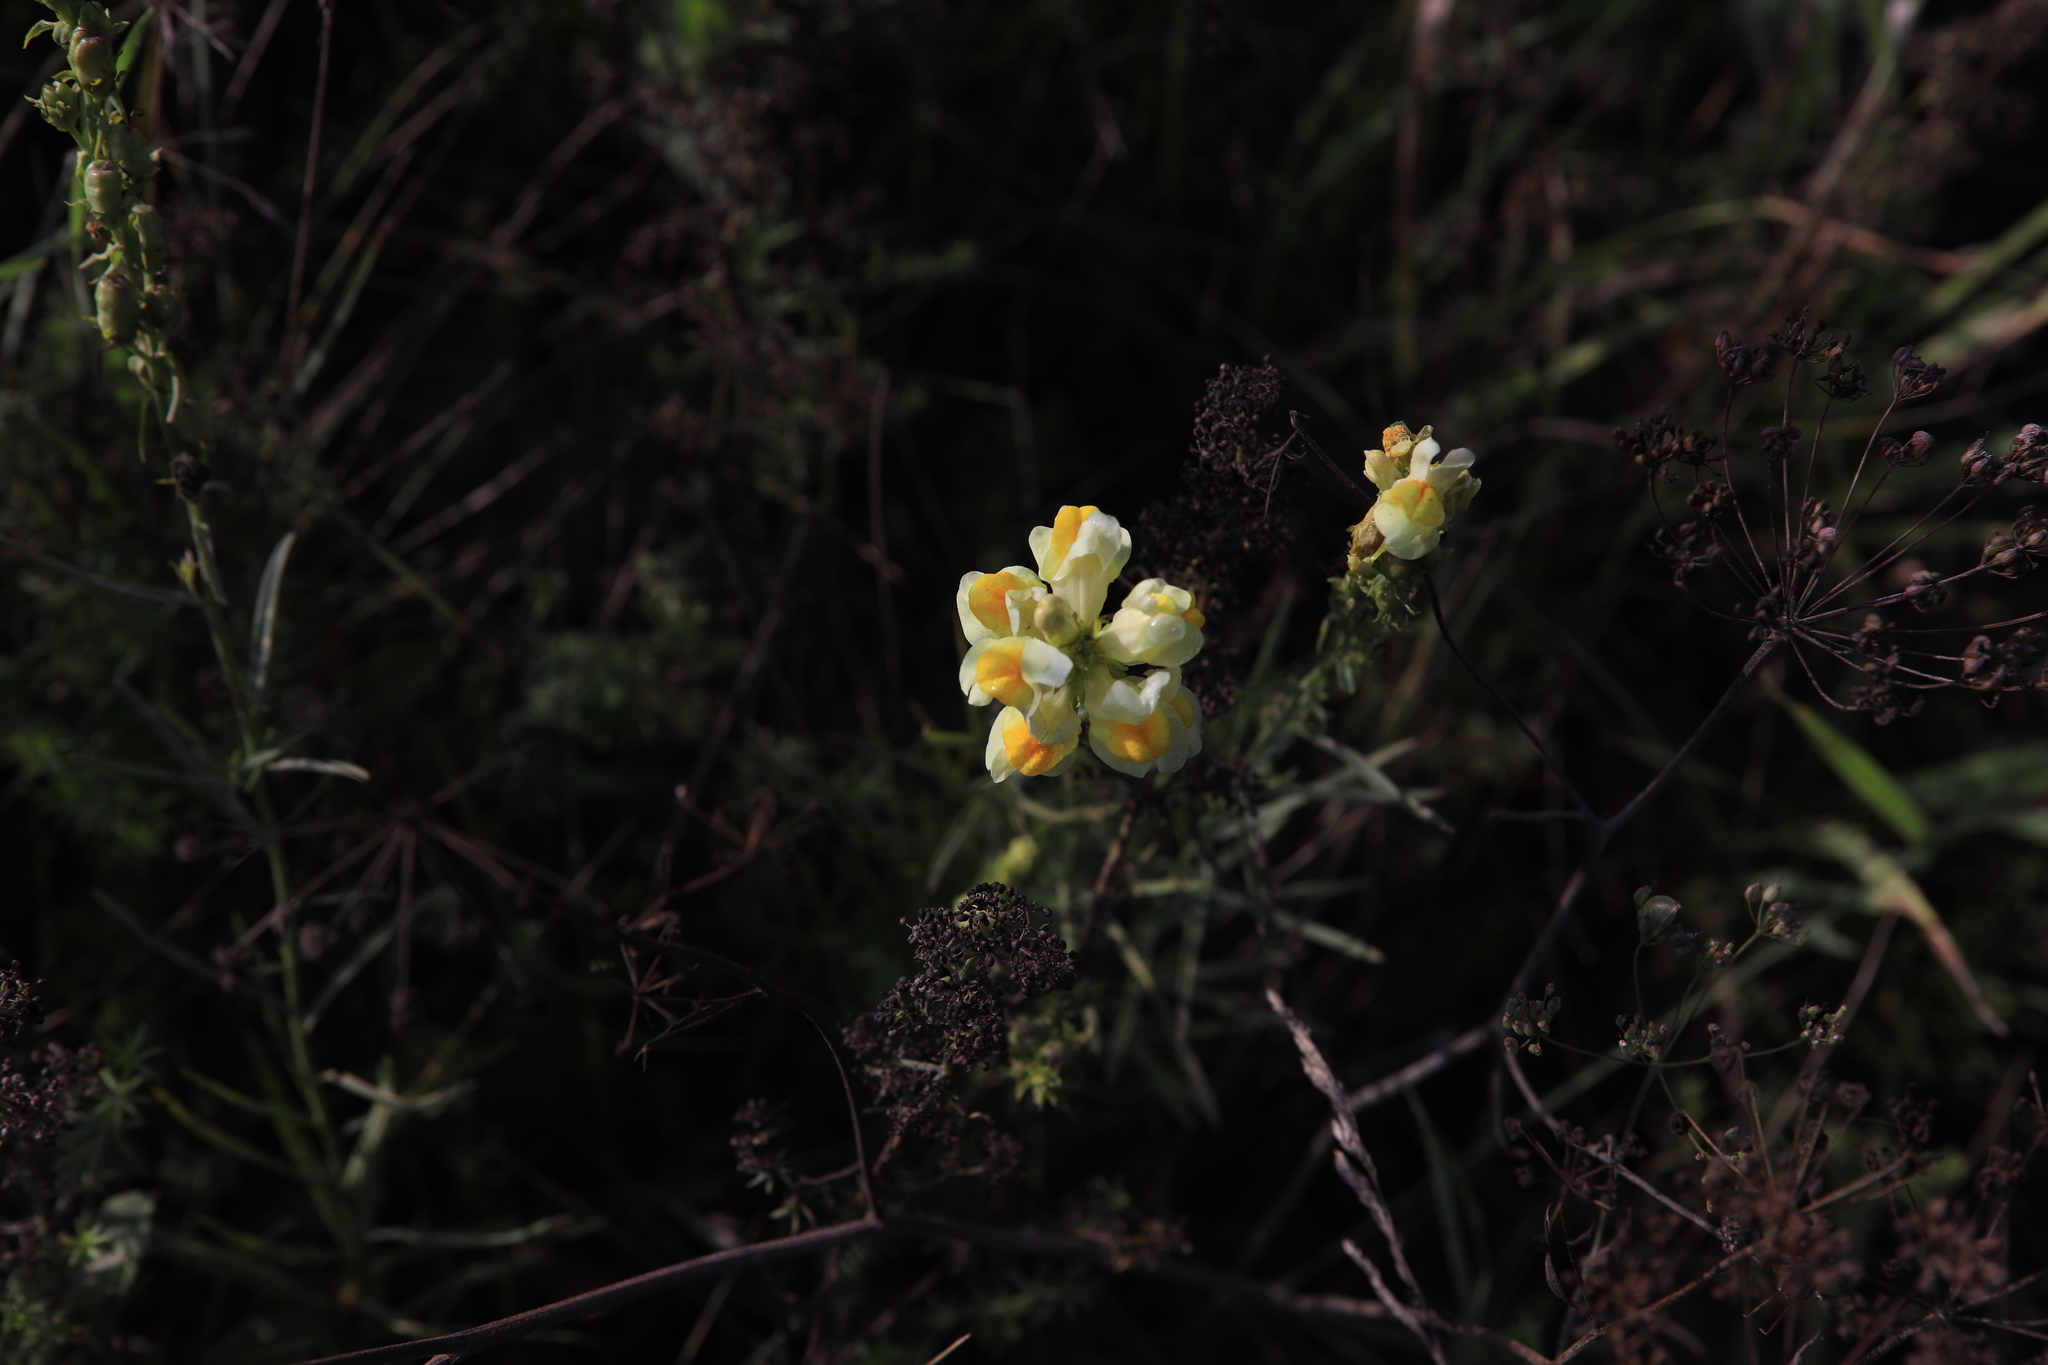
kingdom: Plantae
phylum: Tracheophyta
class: Magnoliopsida
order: Lamiales
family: Plantaginaceae
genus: Linaria
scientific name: Linaria vulgaris
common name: Butter and eggs
